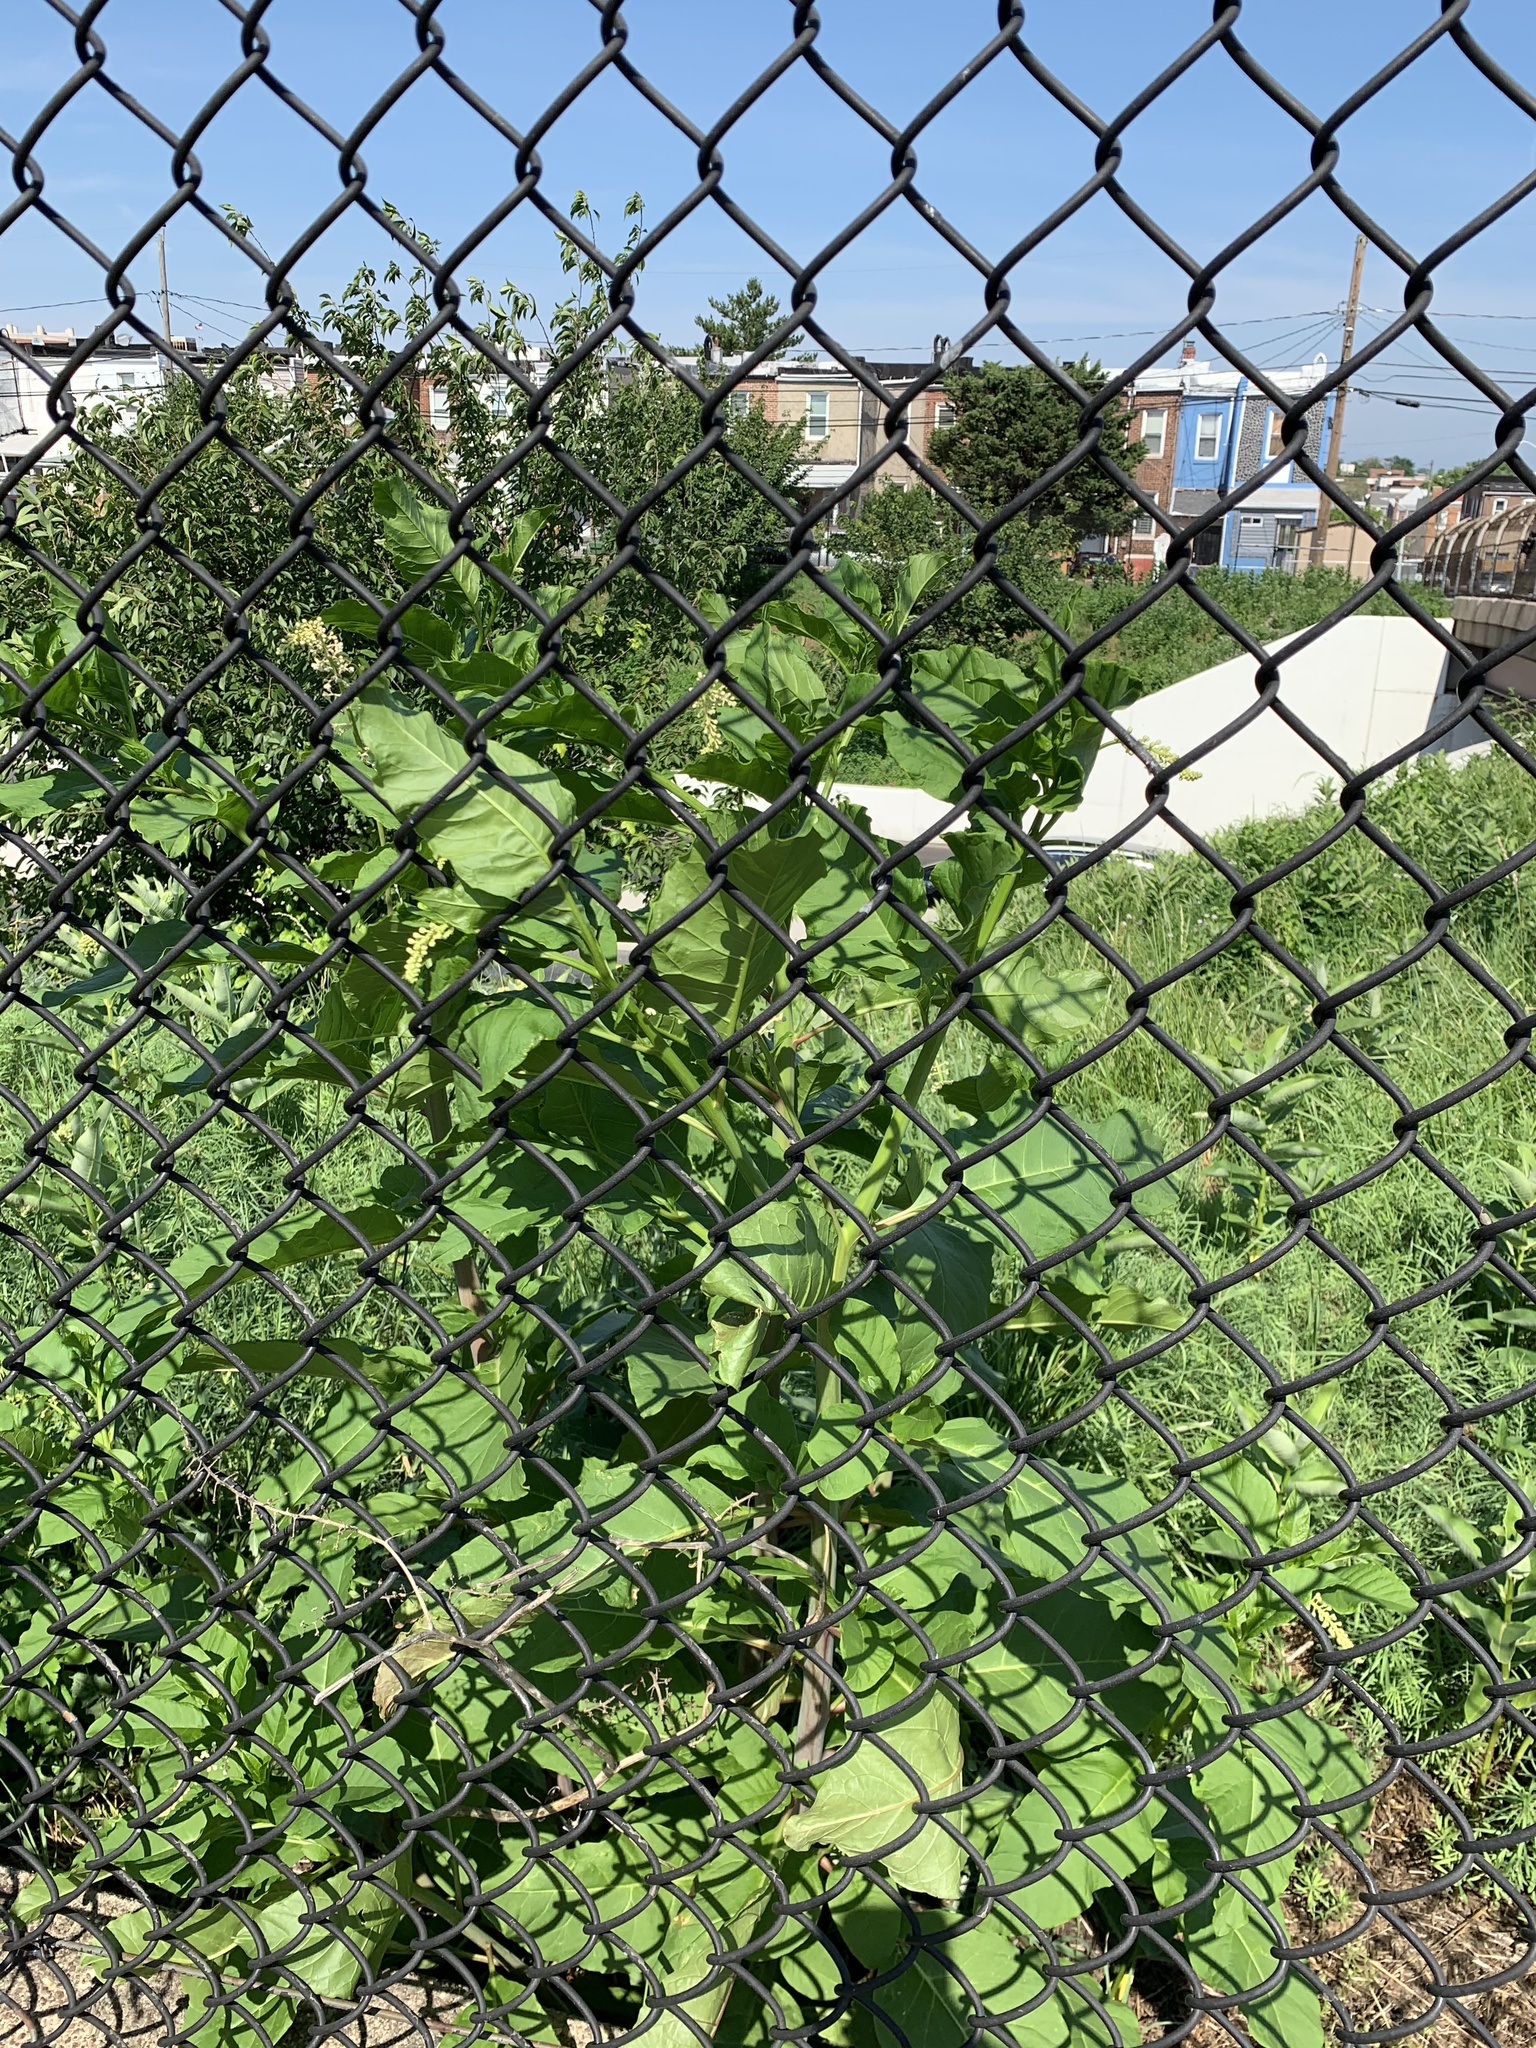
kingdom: Plantae
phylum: Tracheophyta
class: Magnoliopsida
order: Caryophyllales
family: Phytolaccaceae
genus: Phytolacca
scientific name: Phytolacca americana
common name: American pokeweed
